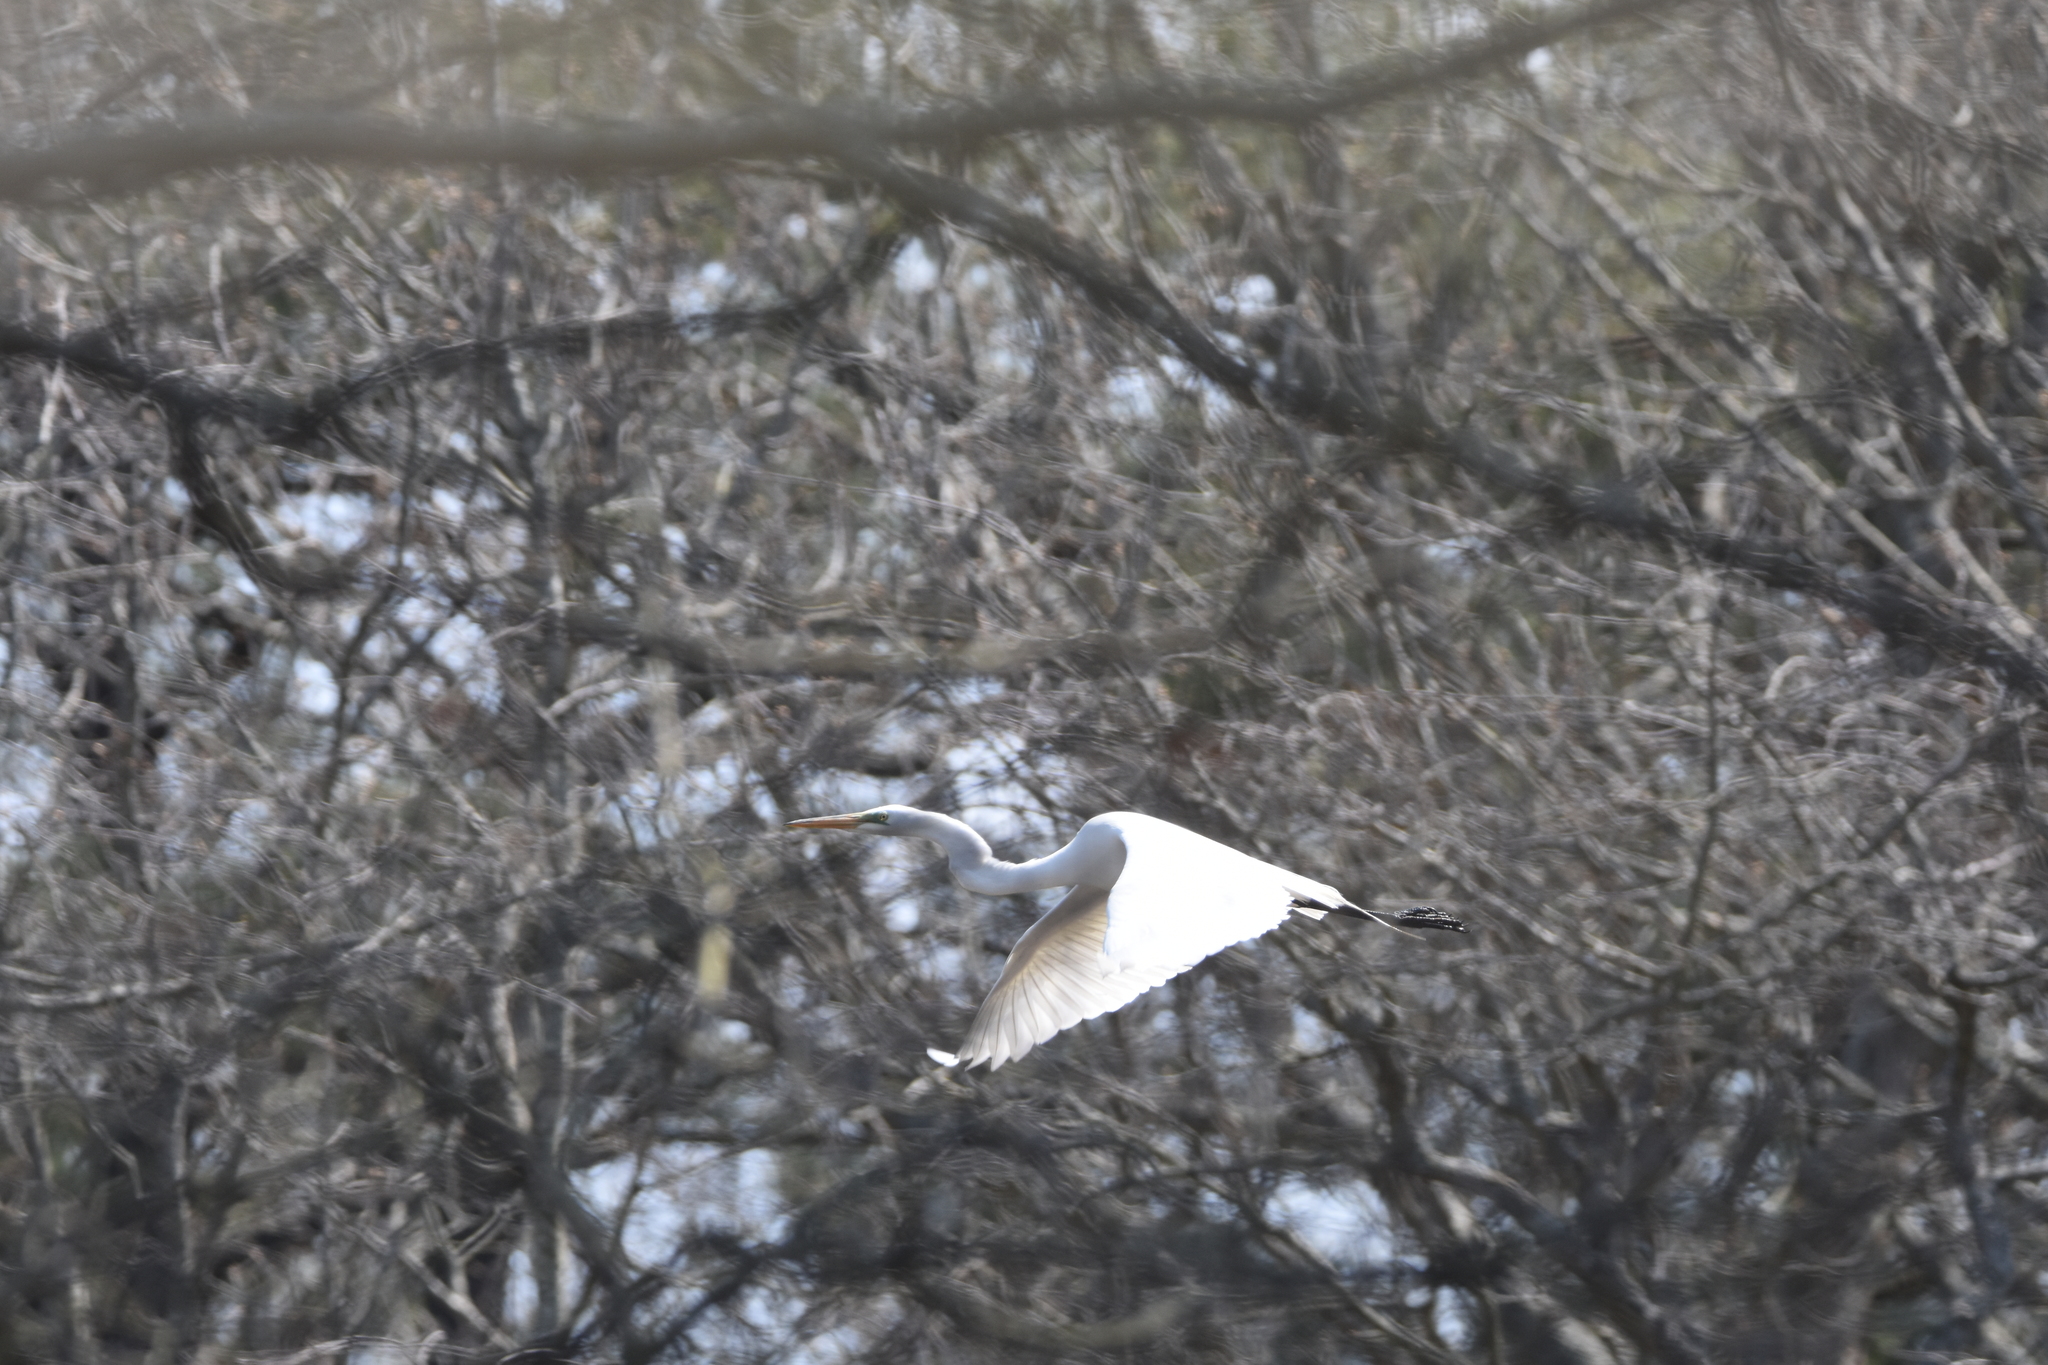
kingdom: Animalia
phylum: Chordata
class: Aves
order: Pelecaniformes
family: Ardeidae
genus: Ardea
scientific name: Ardea alba
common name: Great egret
